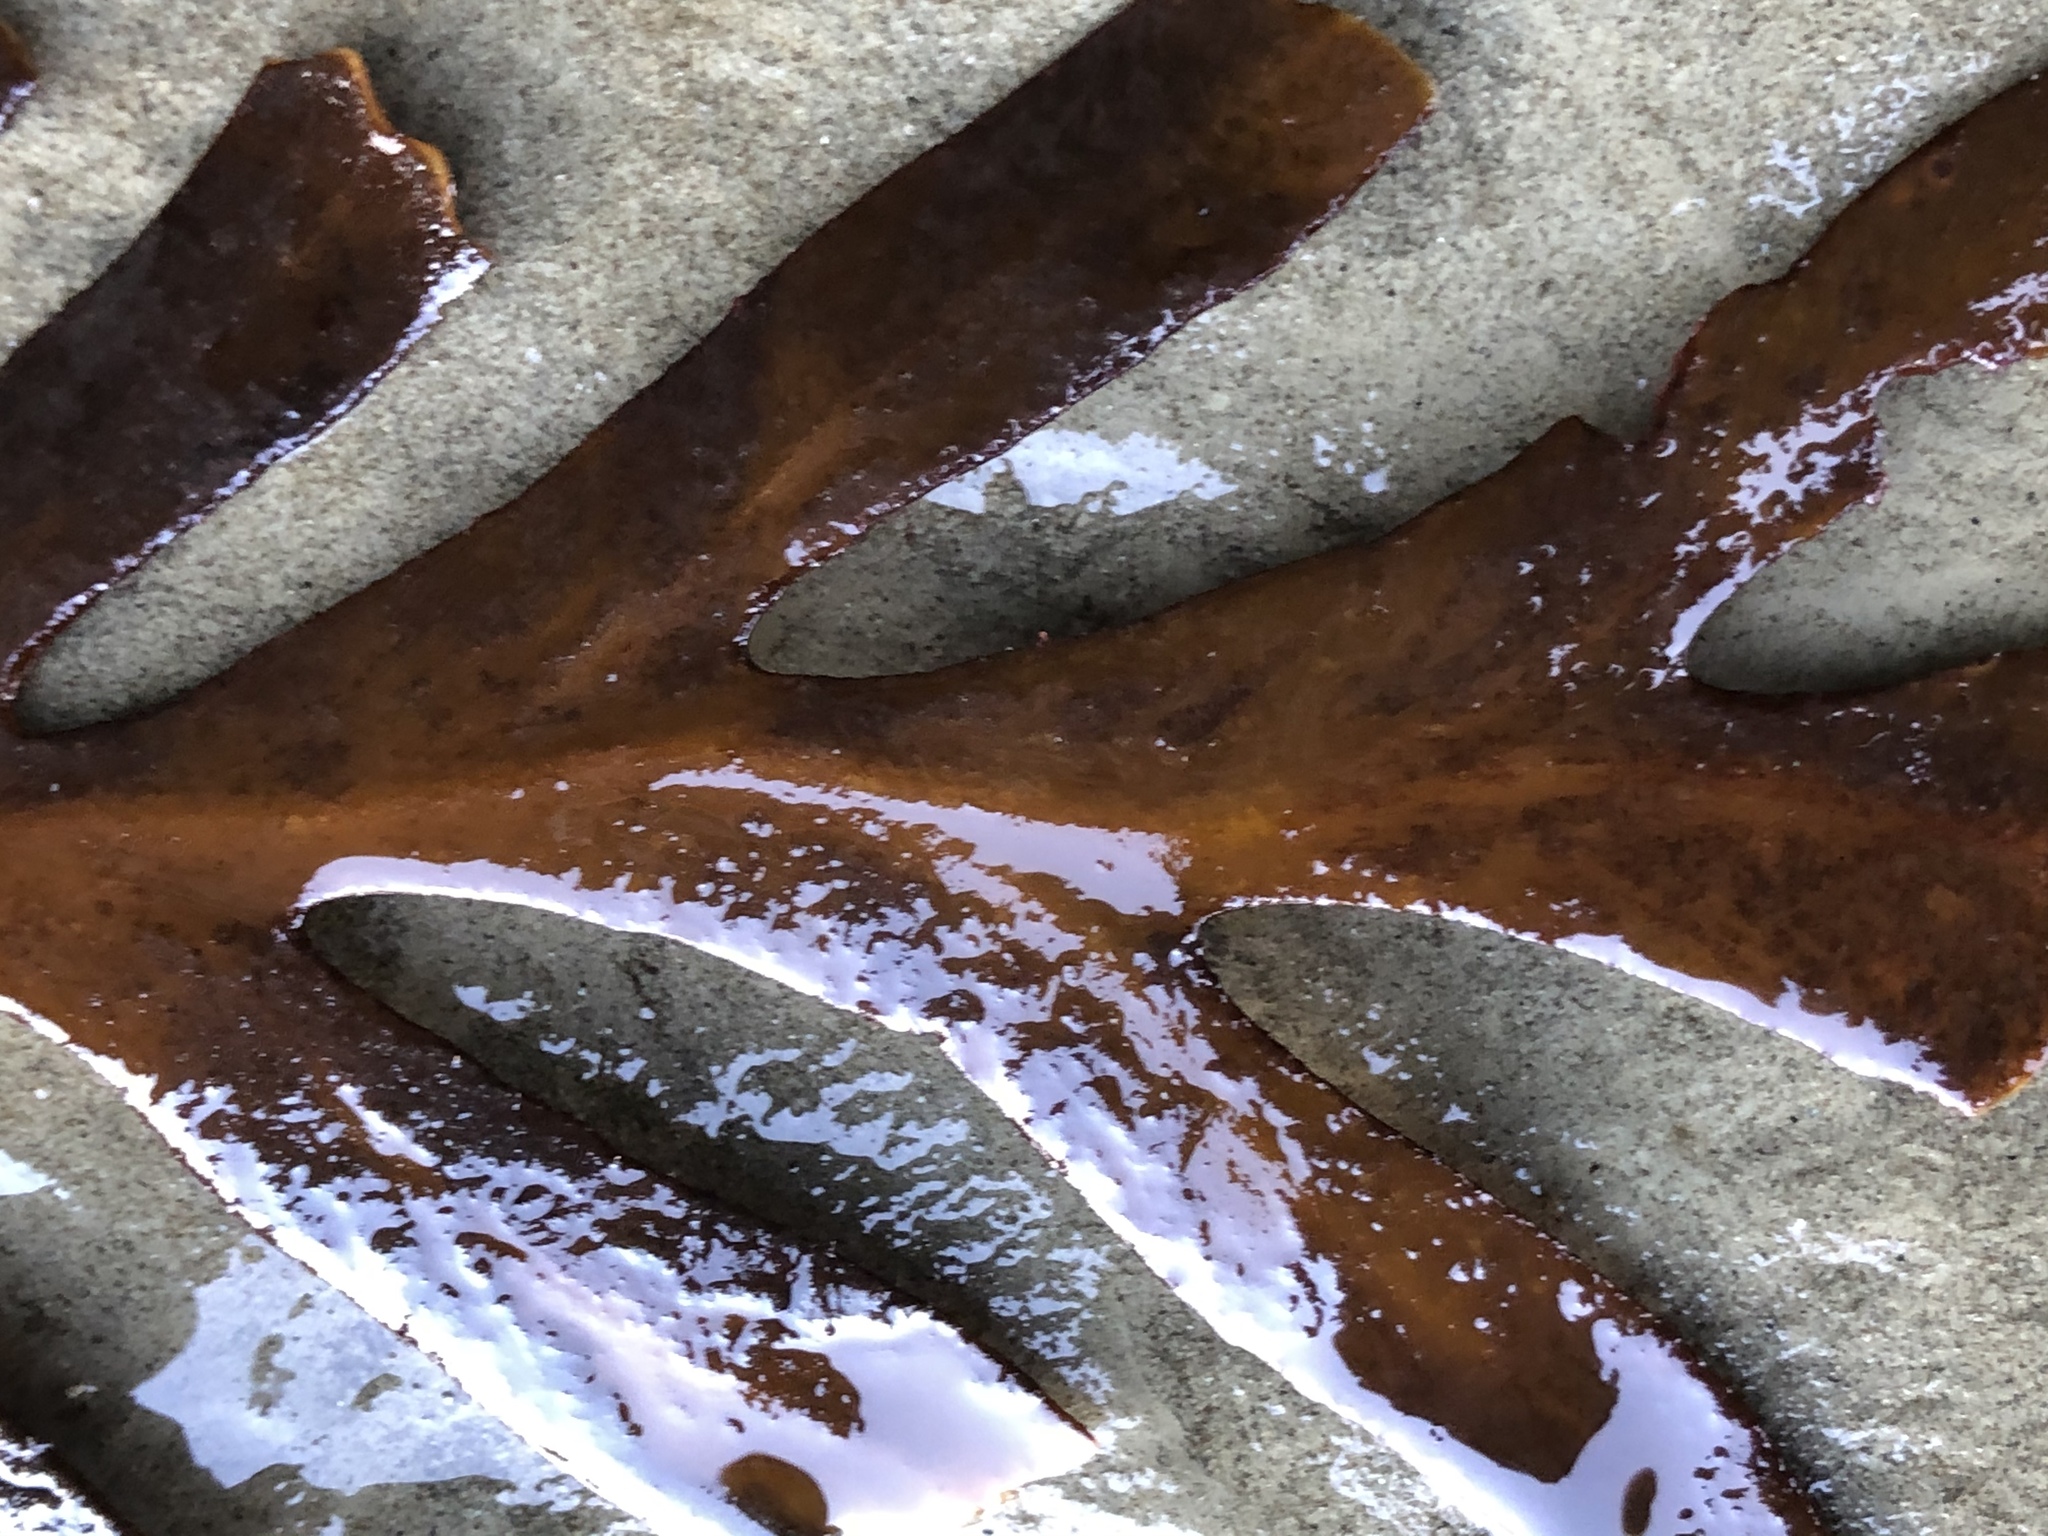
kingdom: Chromista
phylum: Ochrophyta
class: Phaeophyceae
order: Fucales
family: Sargassaceae
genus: Stephanocystis
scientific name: Stephanocystis
